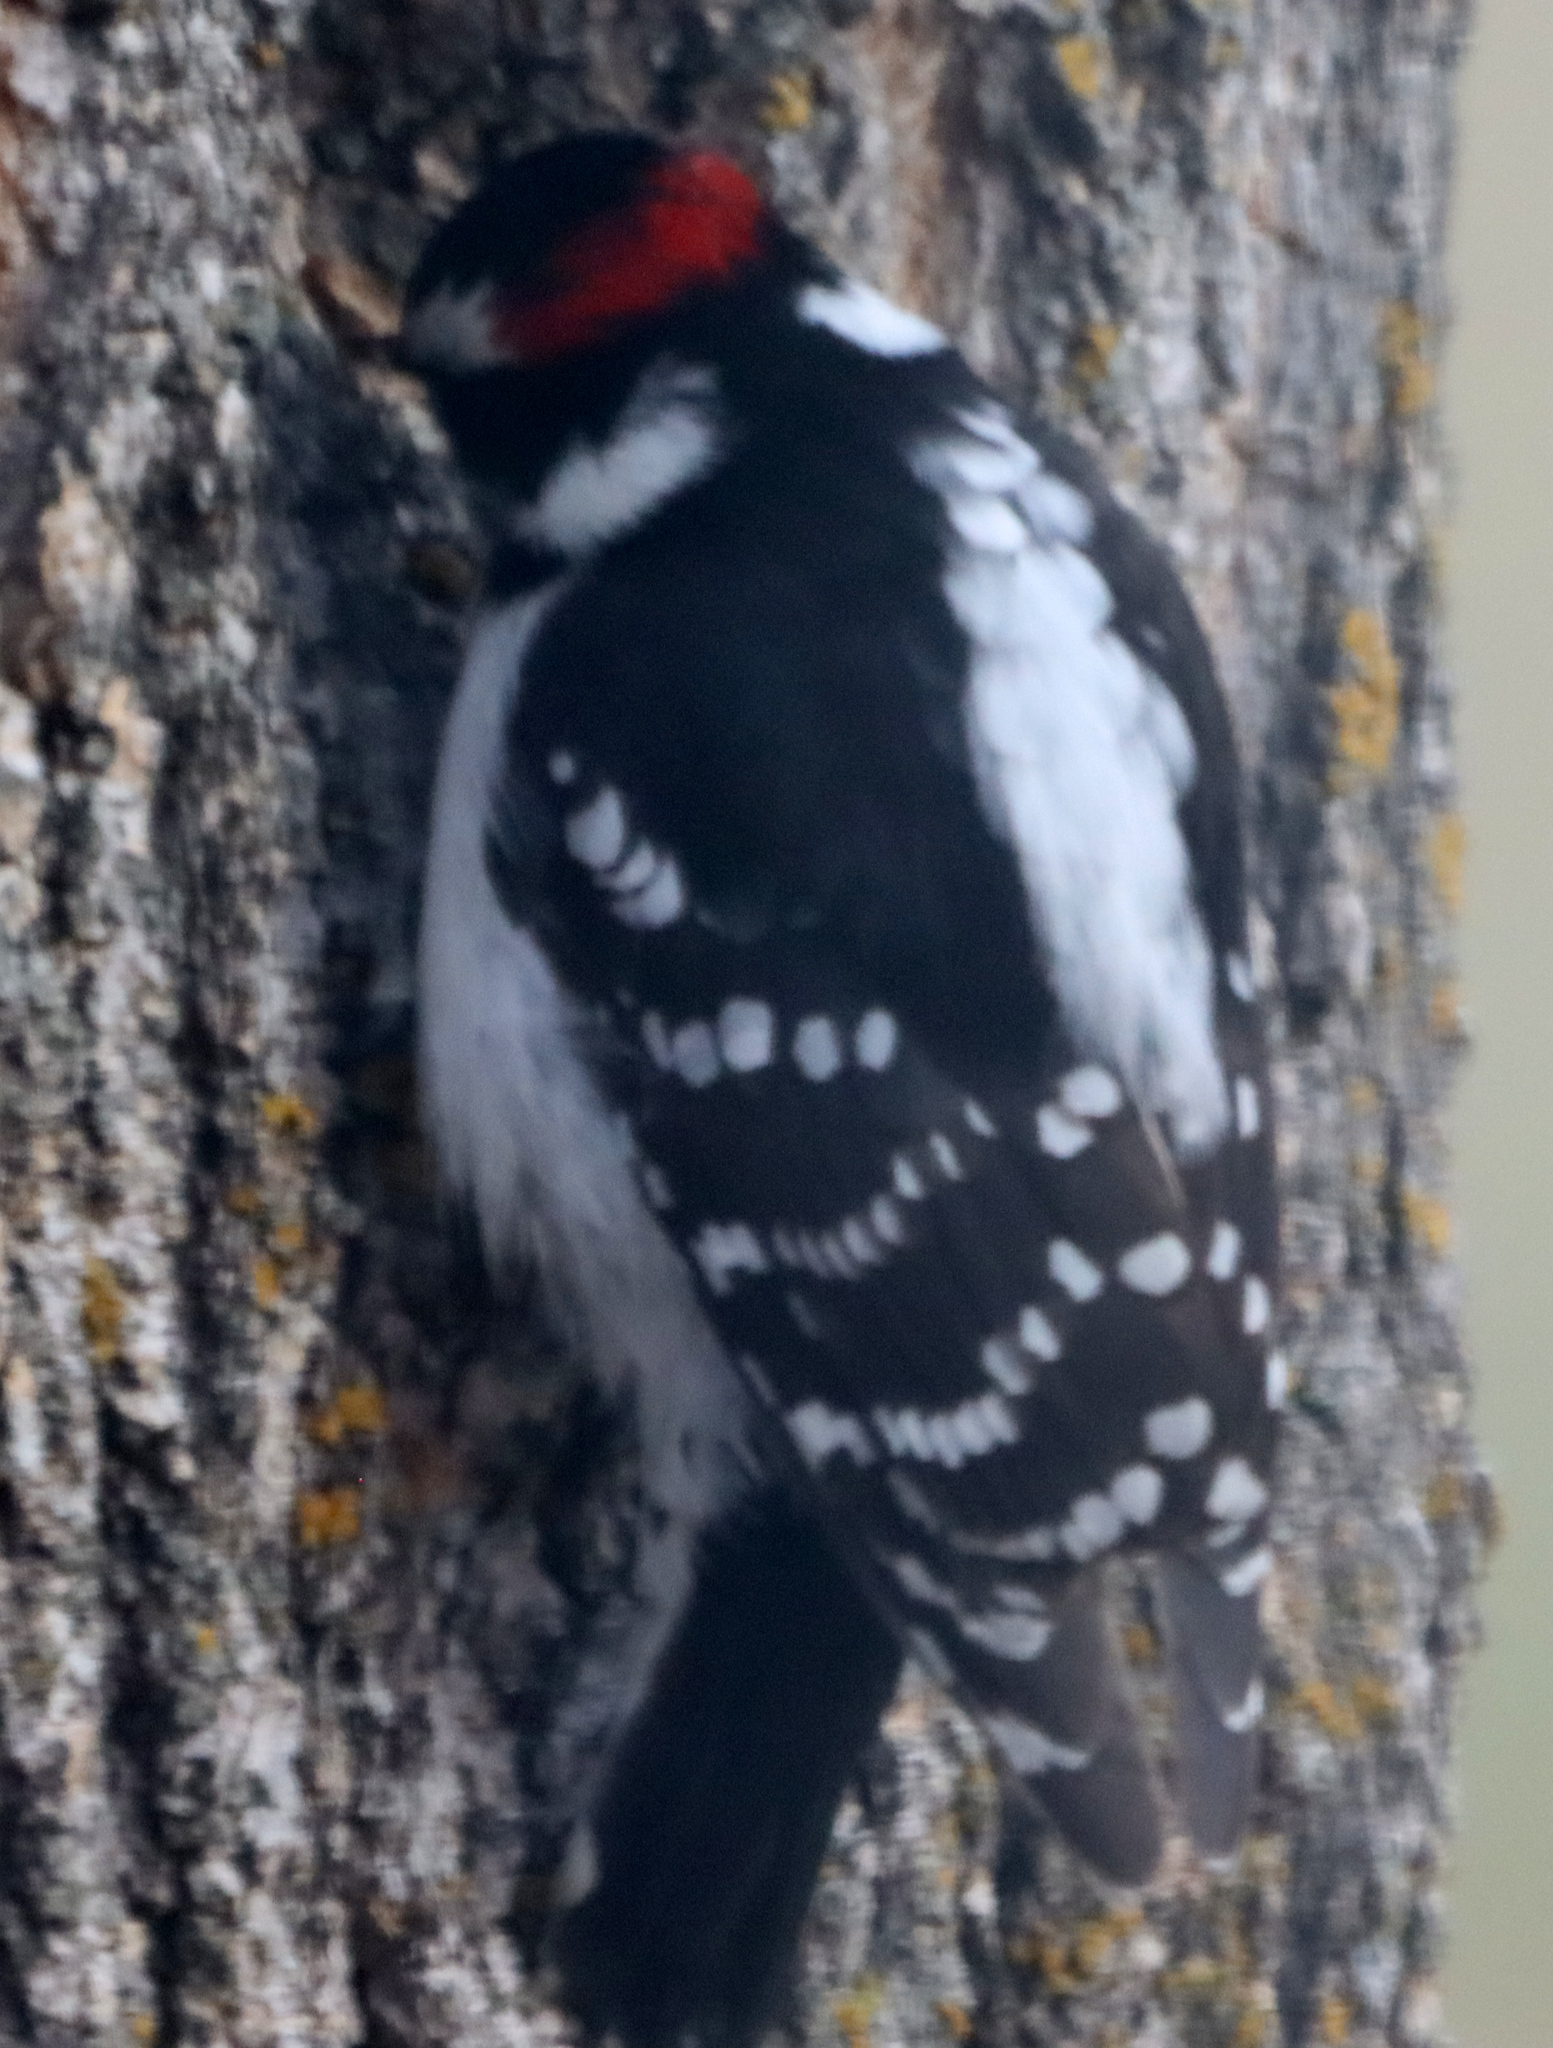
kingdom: Animalia
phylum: Chordata
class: Aves
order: Piciformes
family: Picidae
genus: Dryobates
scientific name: Dryobates pubescens
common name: Downy woodpecker
